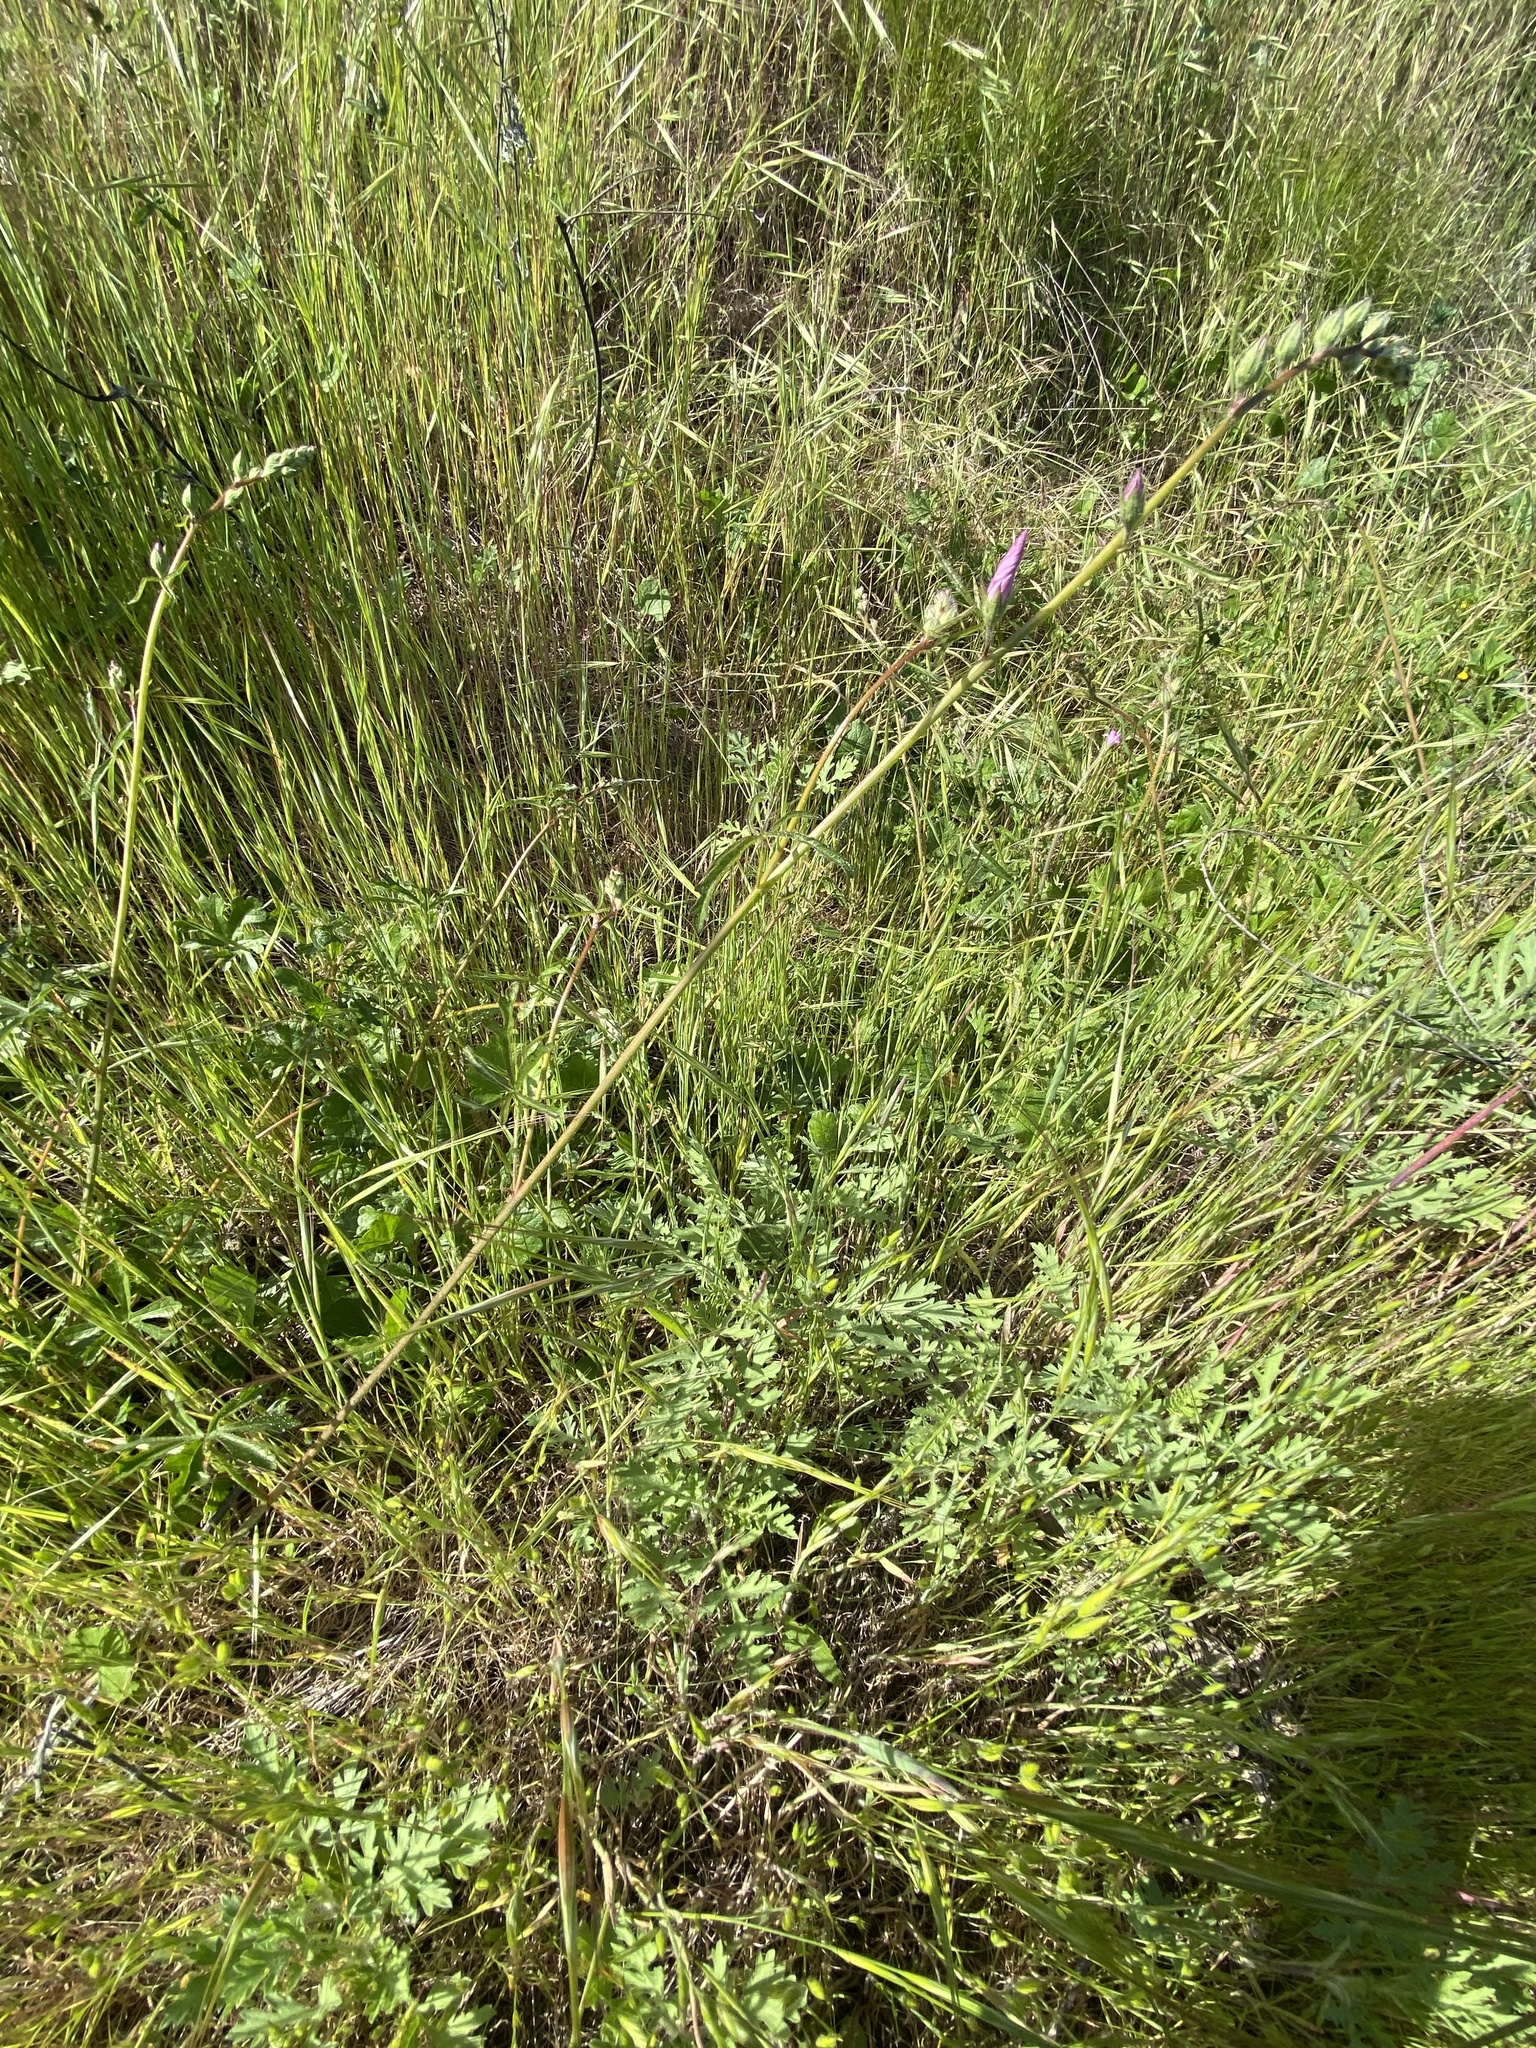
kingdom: Plantae
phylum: Tracheophyta
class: Magnoliopsida
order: Malvales
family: Malvaceae
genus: Sidalcea
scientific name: Sidalcea sparsifolia
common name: Southern checkerbloom
